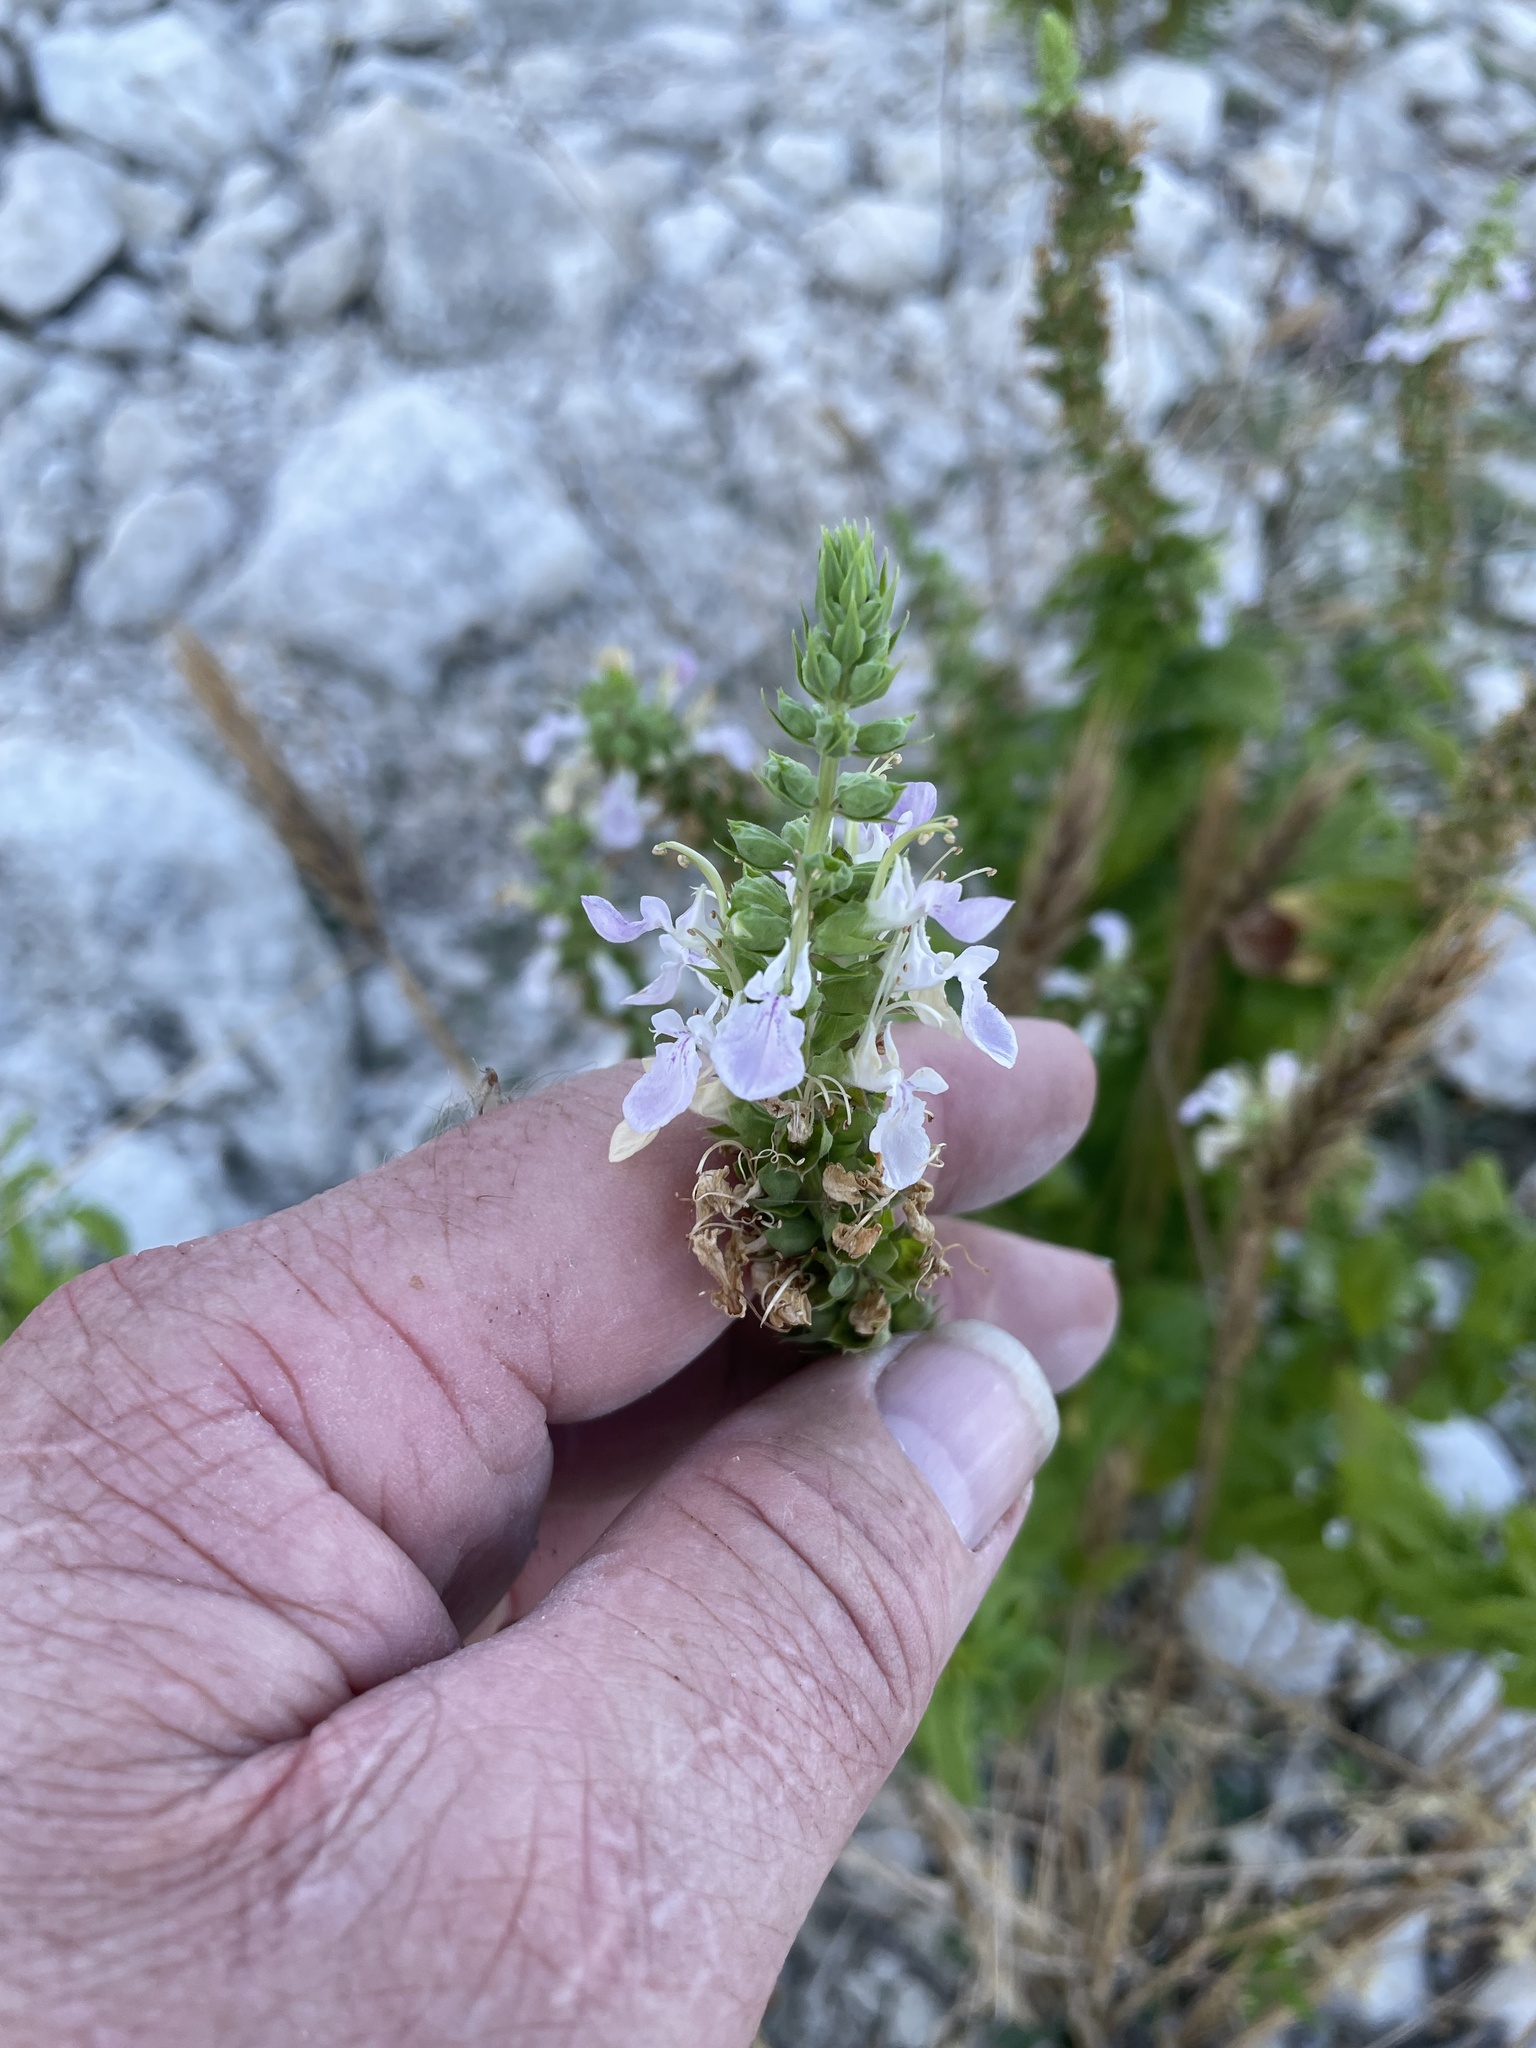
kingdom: Plantae
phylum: Tracheophyta
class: Magnoliopsida
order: Lamiales
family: Lamiaceae
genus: Teucrium
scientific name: Teucrium canadense
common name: American germander
